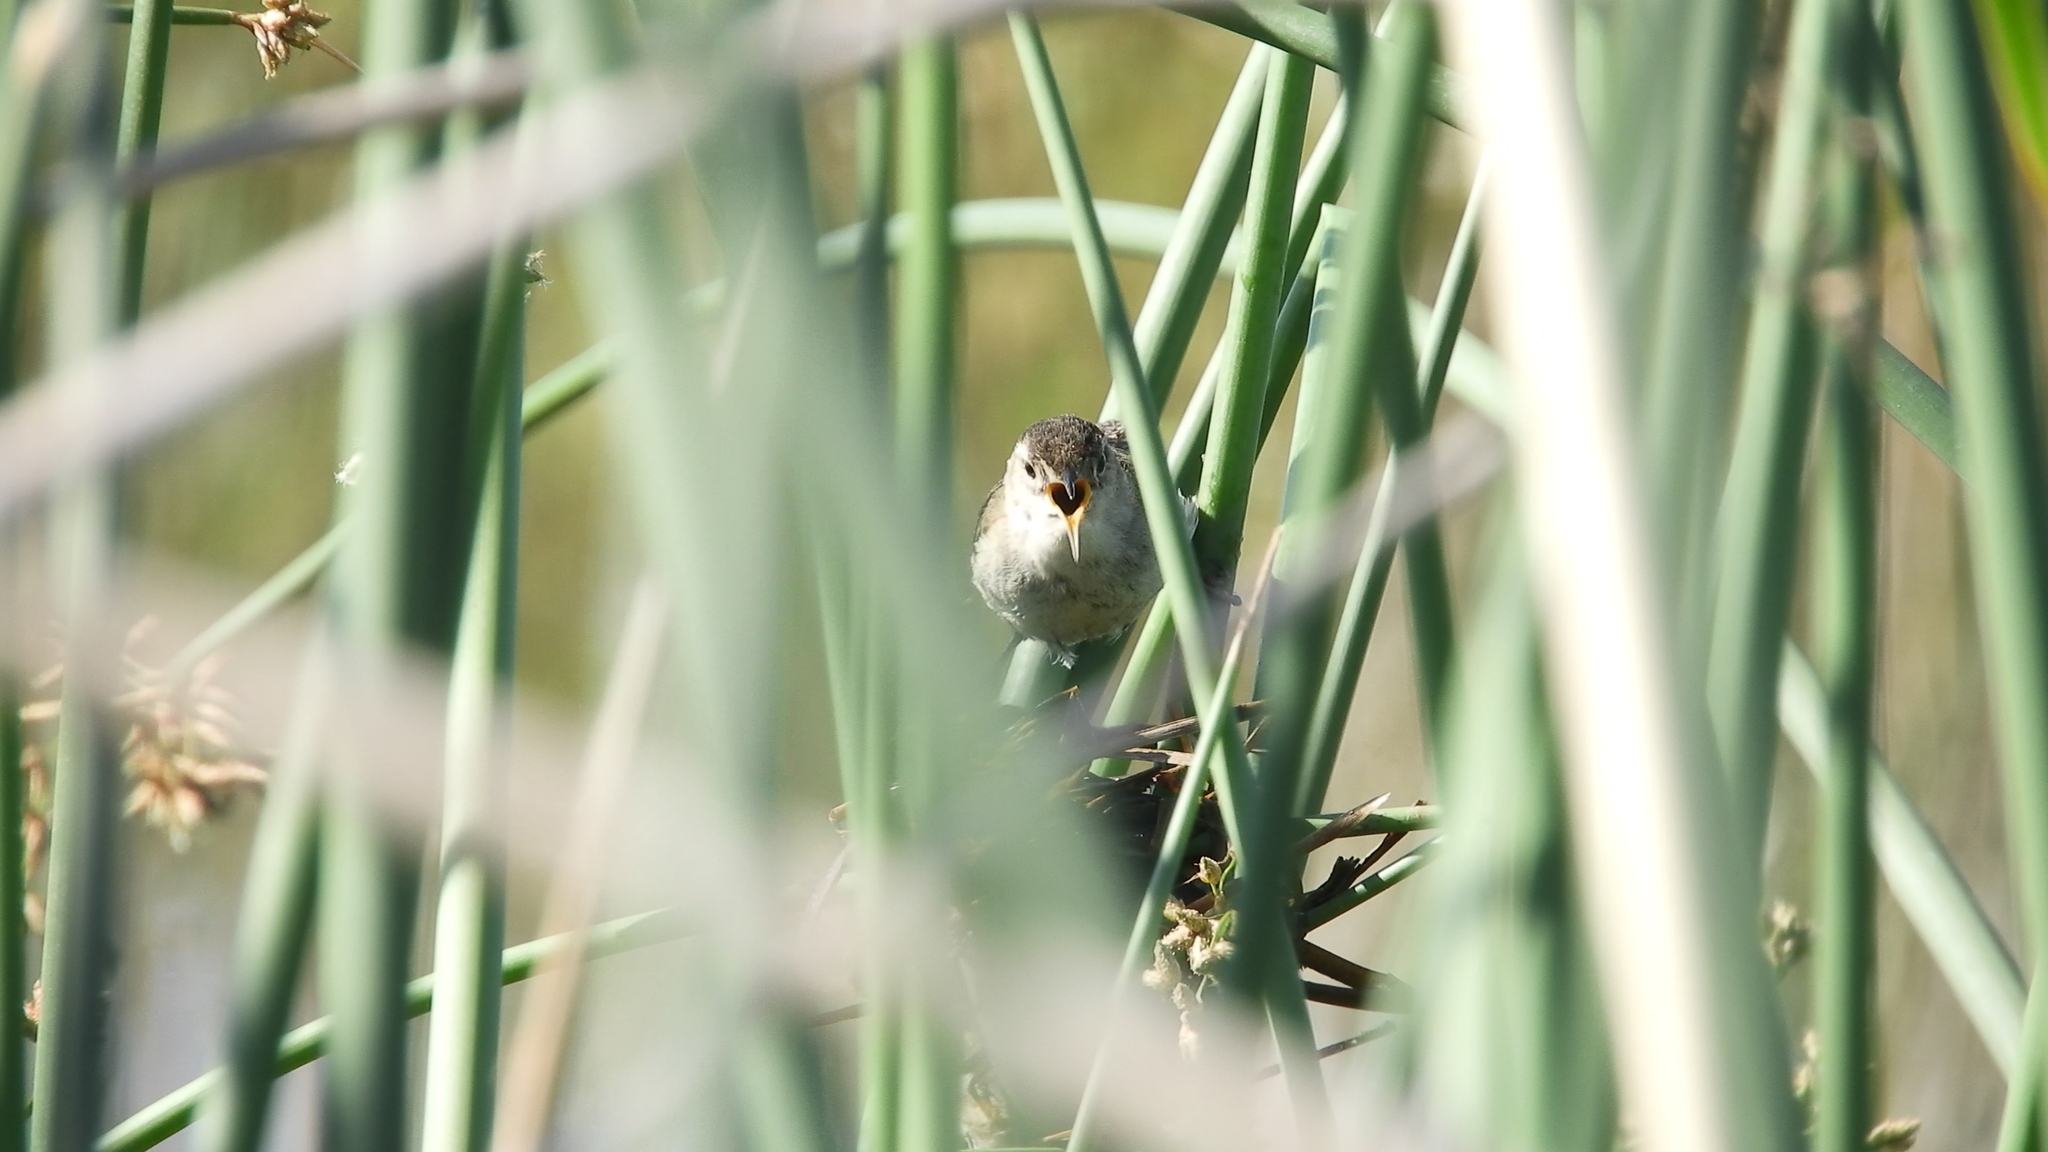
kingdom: Animalia
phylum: Chordata
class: Aves
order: Passeriformes
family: Troglodytidae
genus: Cistothorus
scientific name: Cistothorus palustris
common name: Marsh wren
